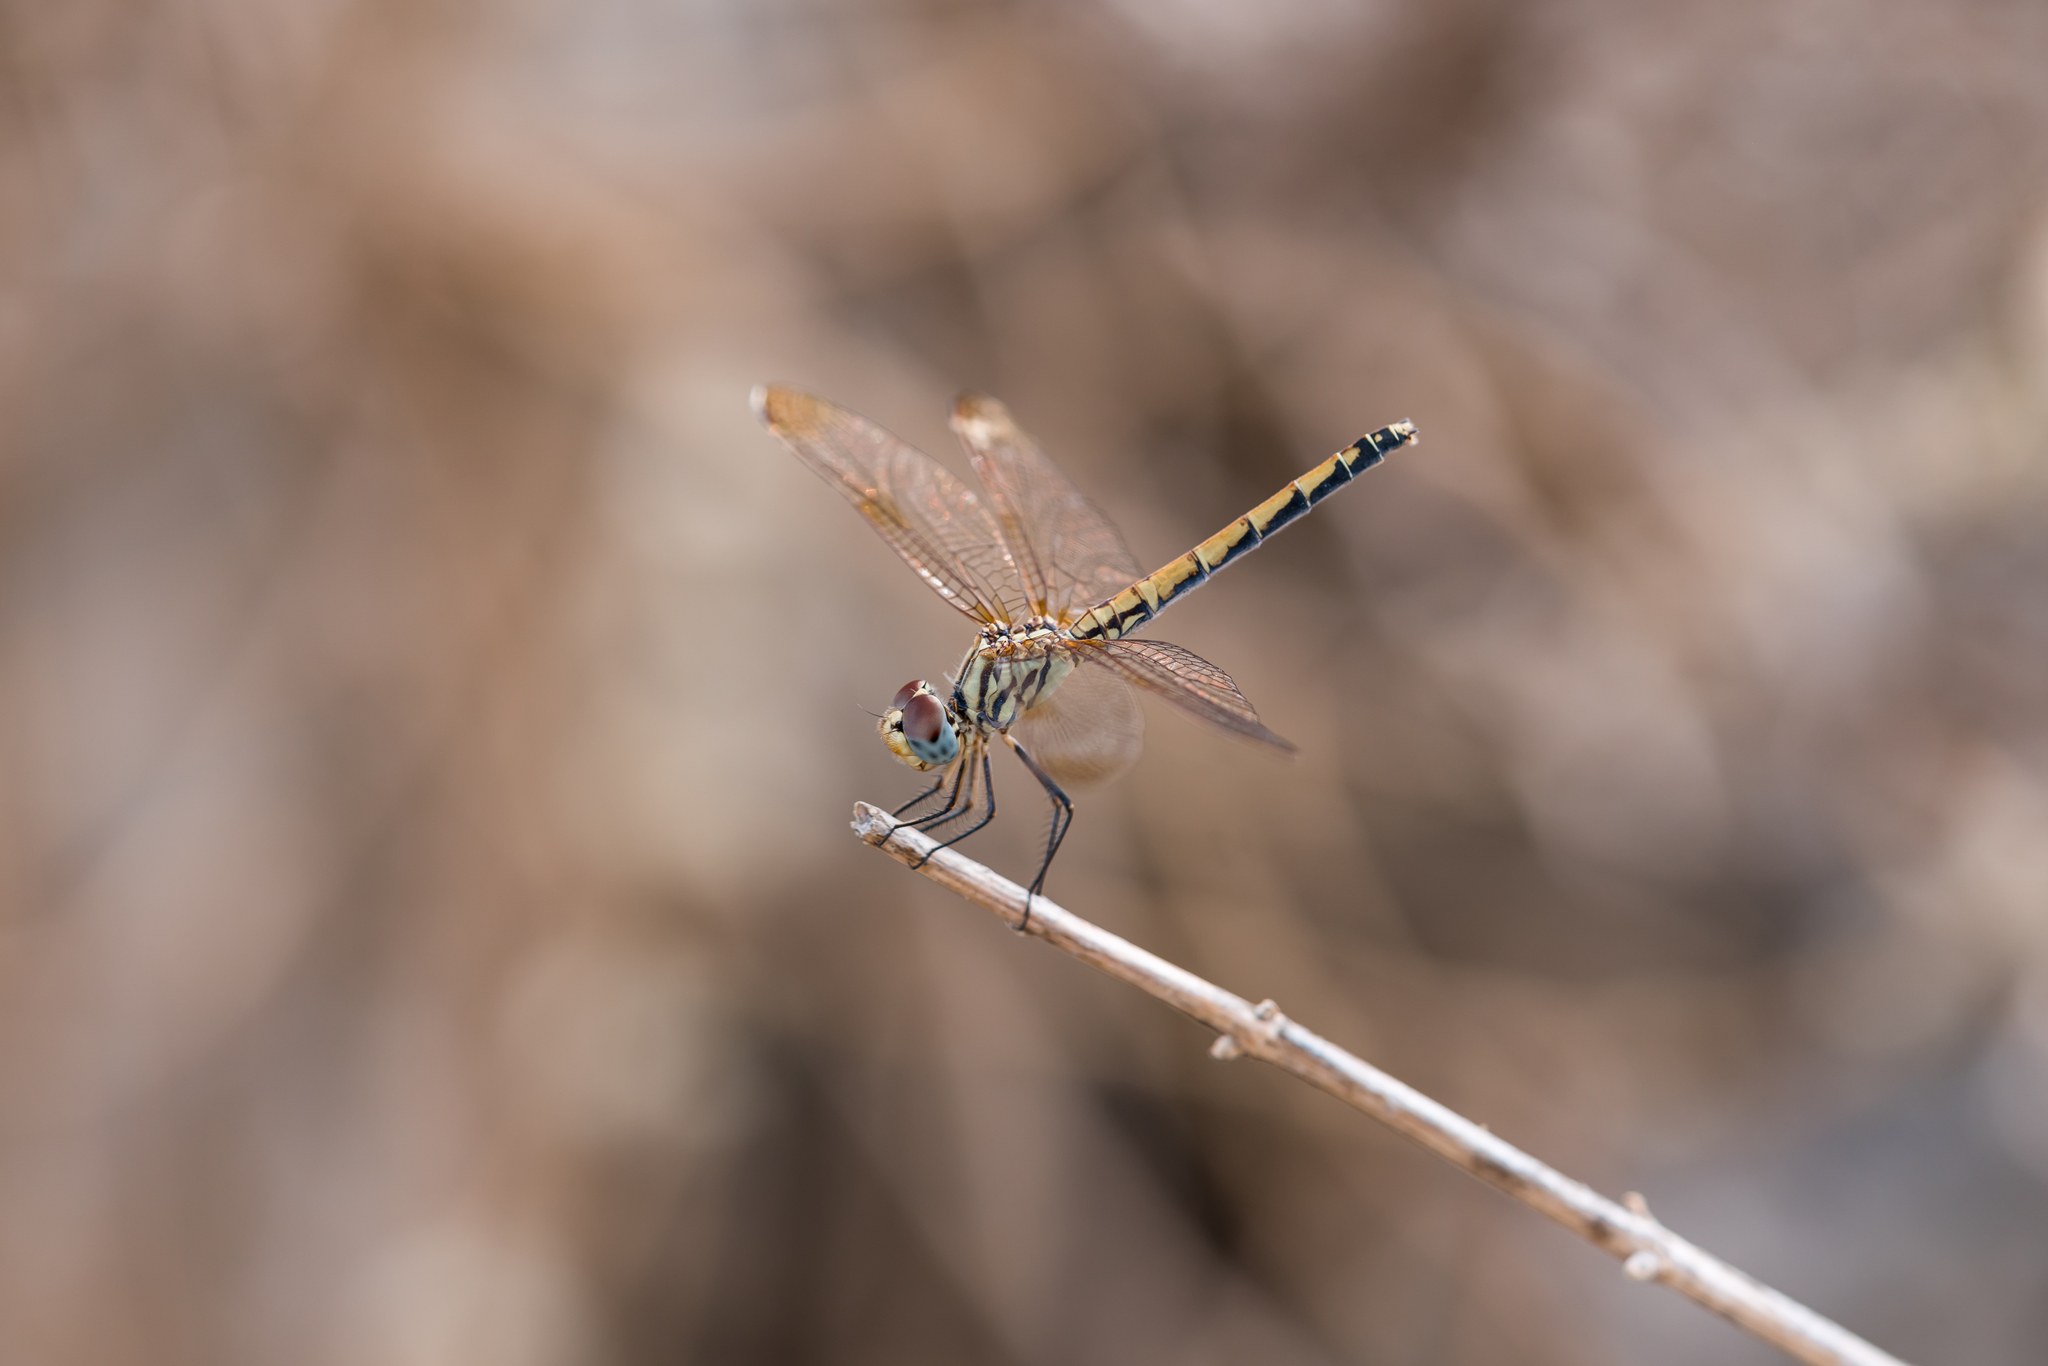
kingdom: Animalia
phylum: Arthropoda
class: Insecta
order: Odonata
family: Libellulidae
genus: Trithemis
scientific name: Trithemis arteriosa
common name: Red-veined dropwing
